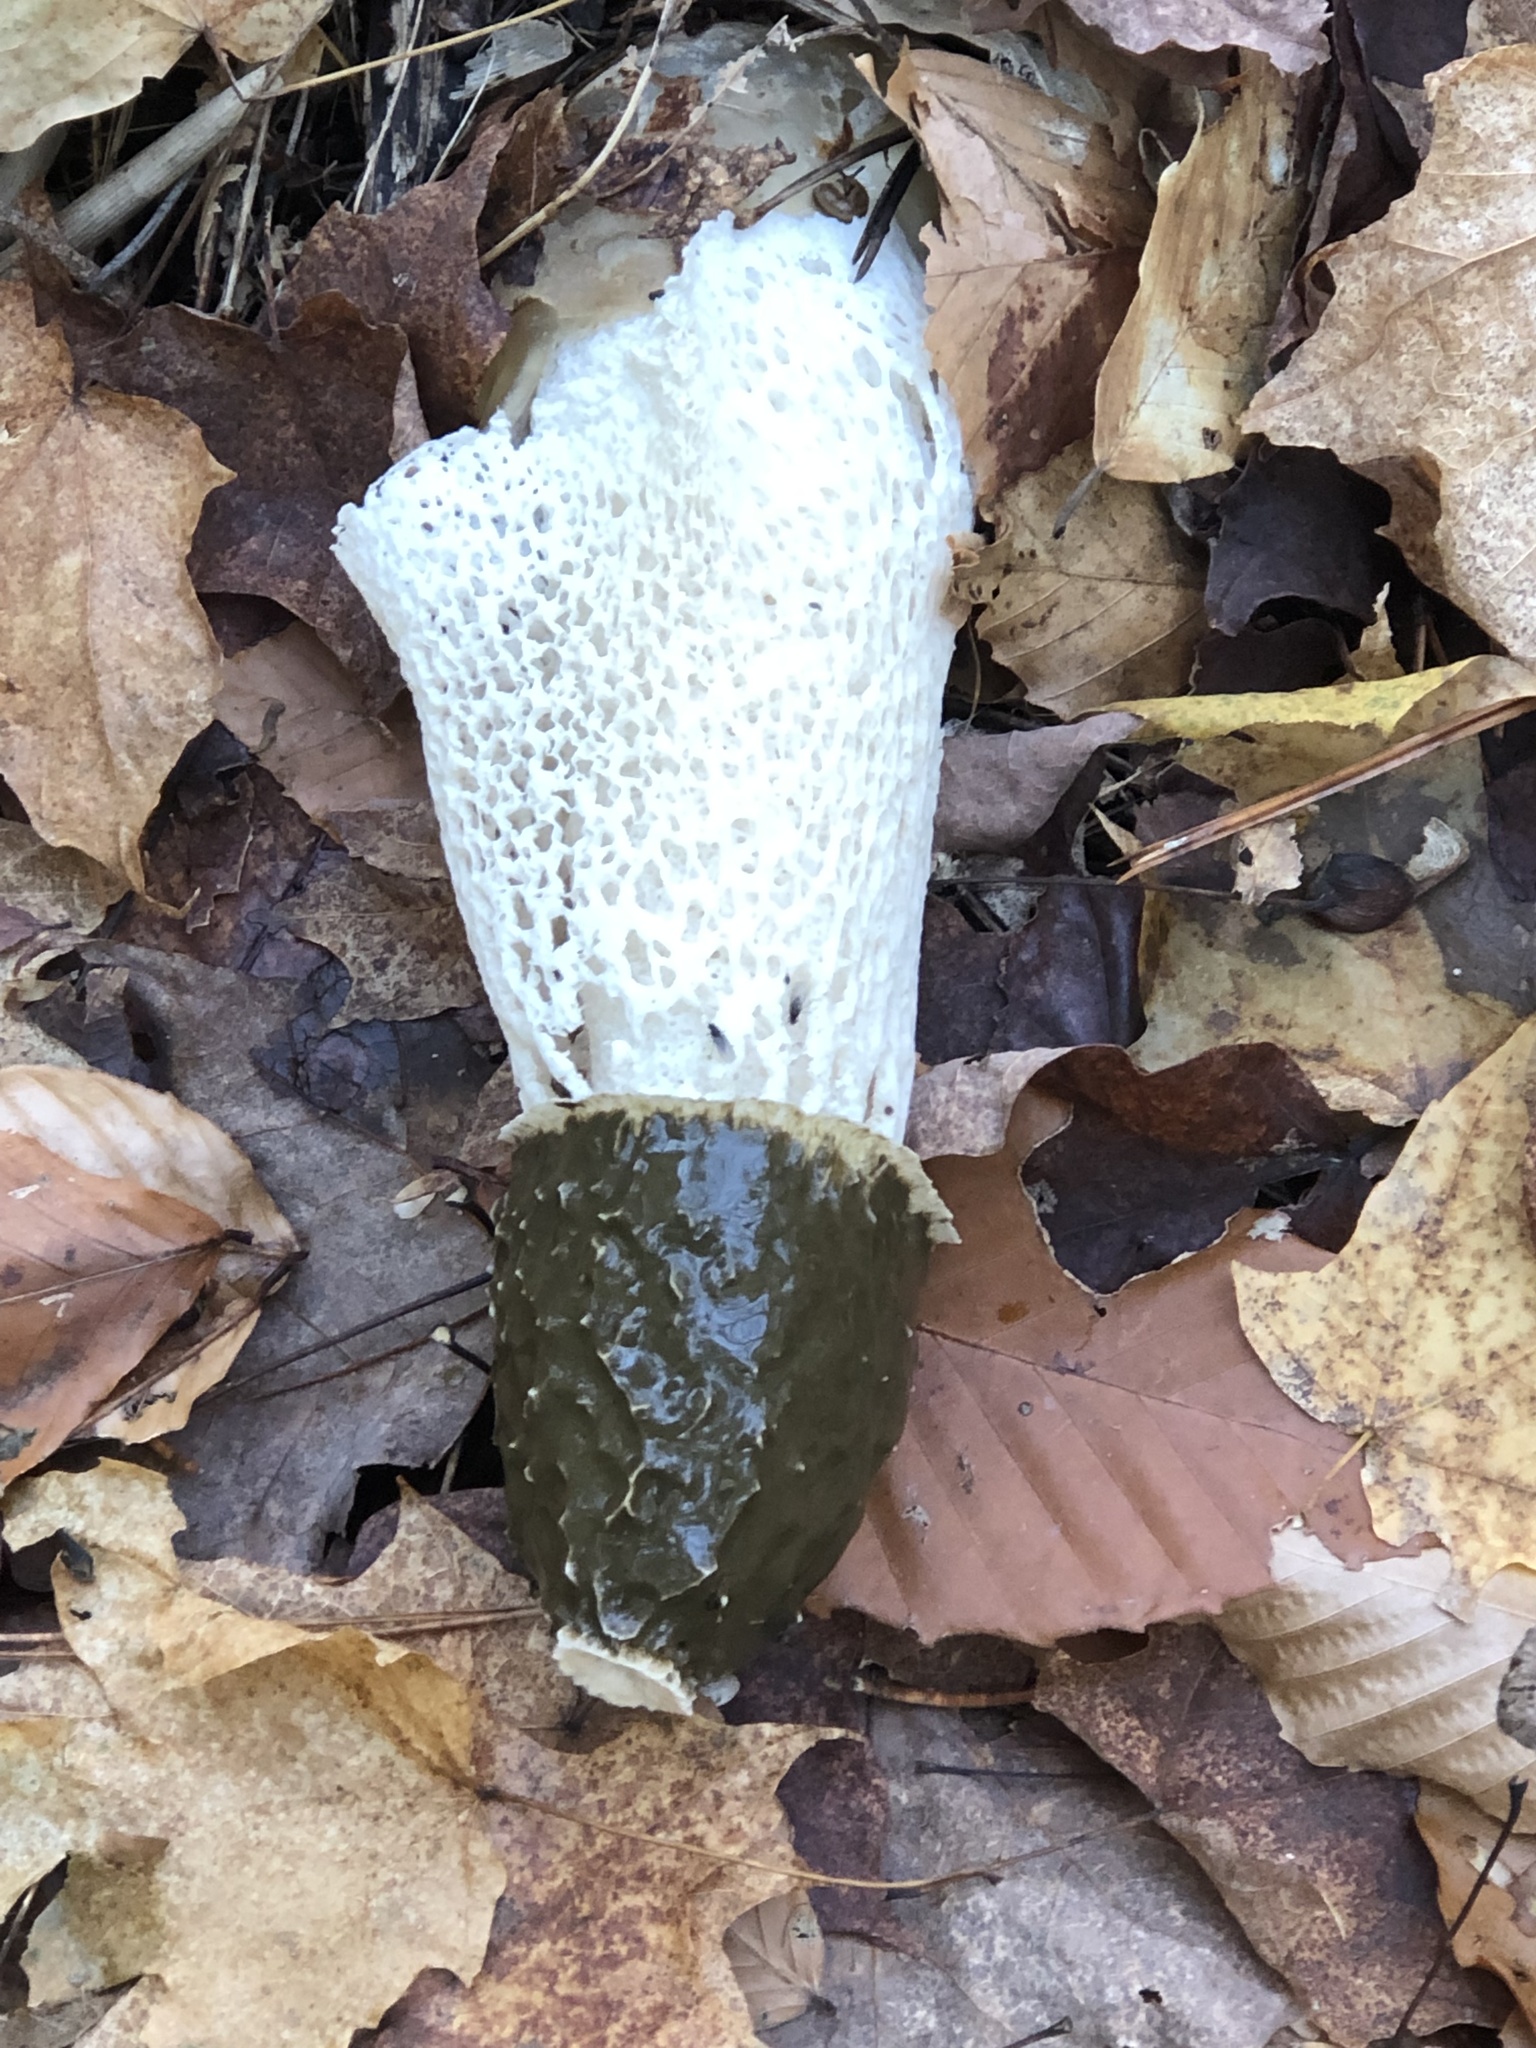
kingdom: Fungi
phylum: Basidiomycota
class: Agaricomycetes
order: Phallales
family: Phallaceae
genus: Phallus
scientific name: Phallus indusiatus
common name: Bridal veil stinkhorn
